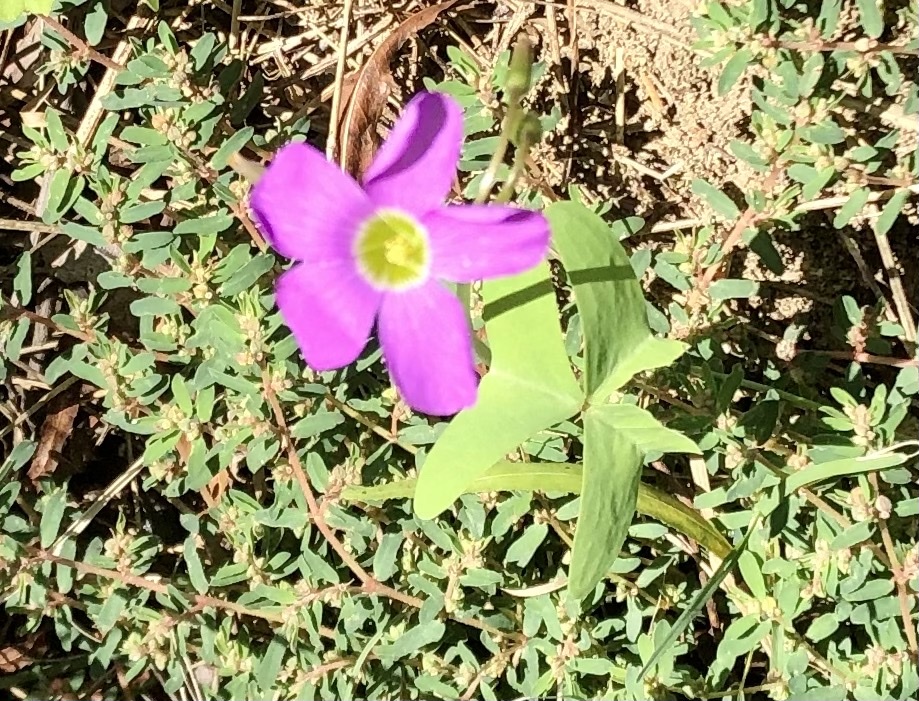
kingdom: Plantae
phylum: Tracheophyta
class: Magnoliopsida
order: Oxalidales
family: Oxalidaceae
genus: Oxalis
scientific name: Oxalis drummondii
